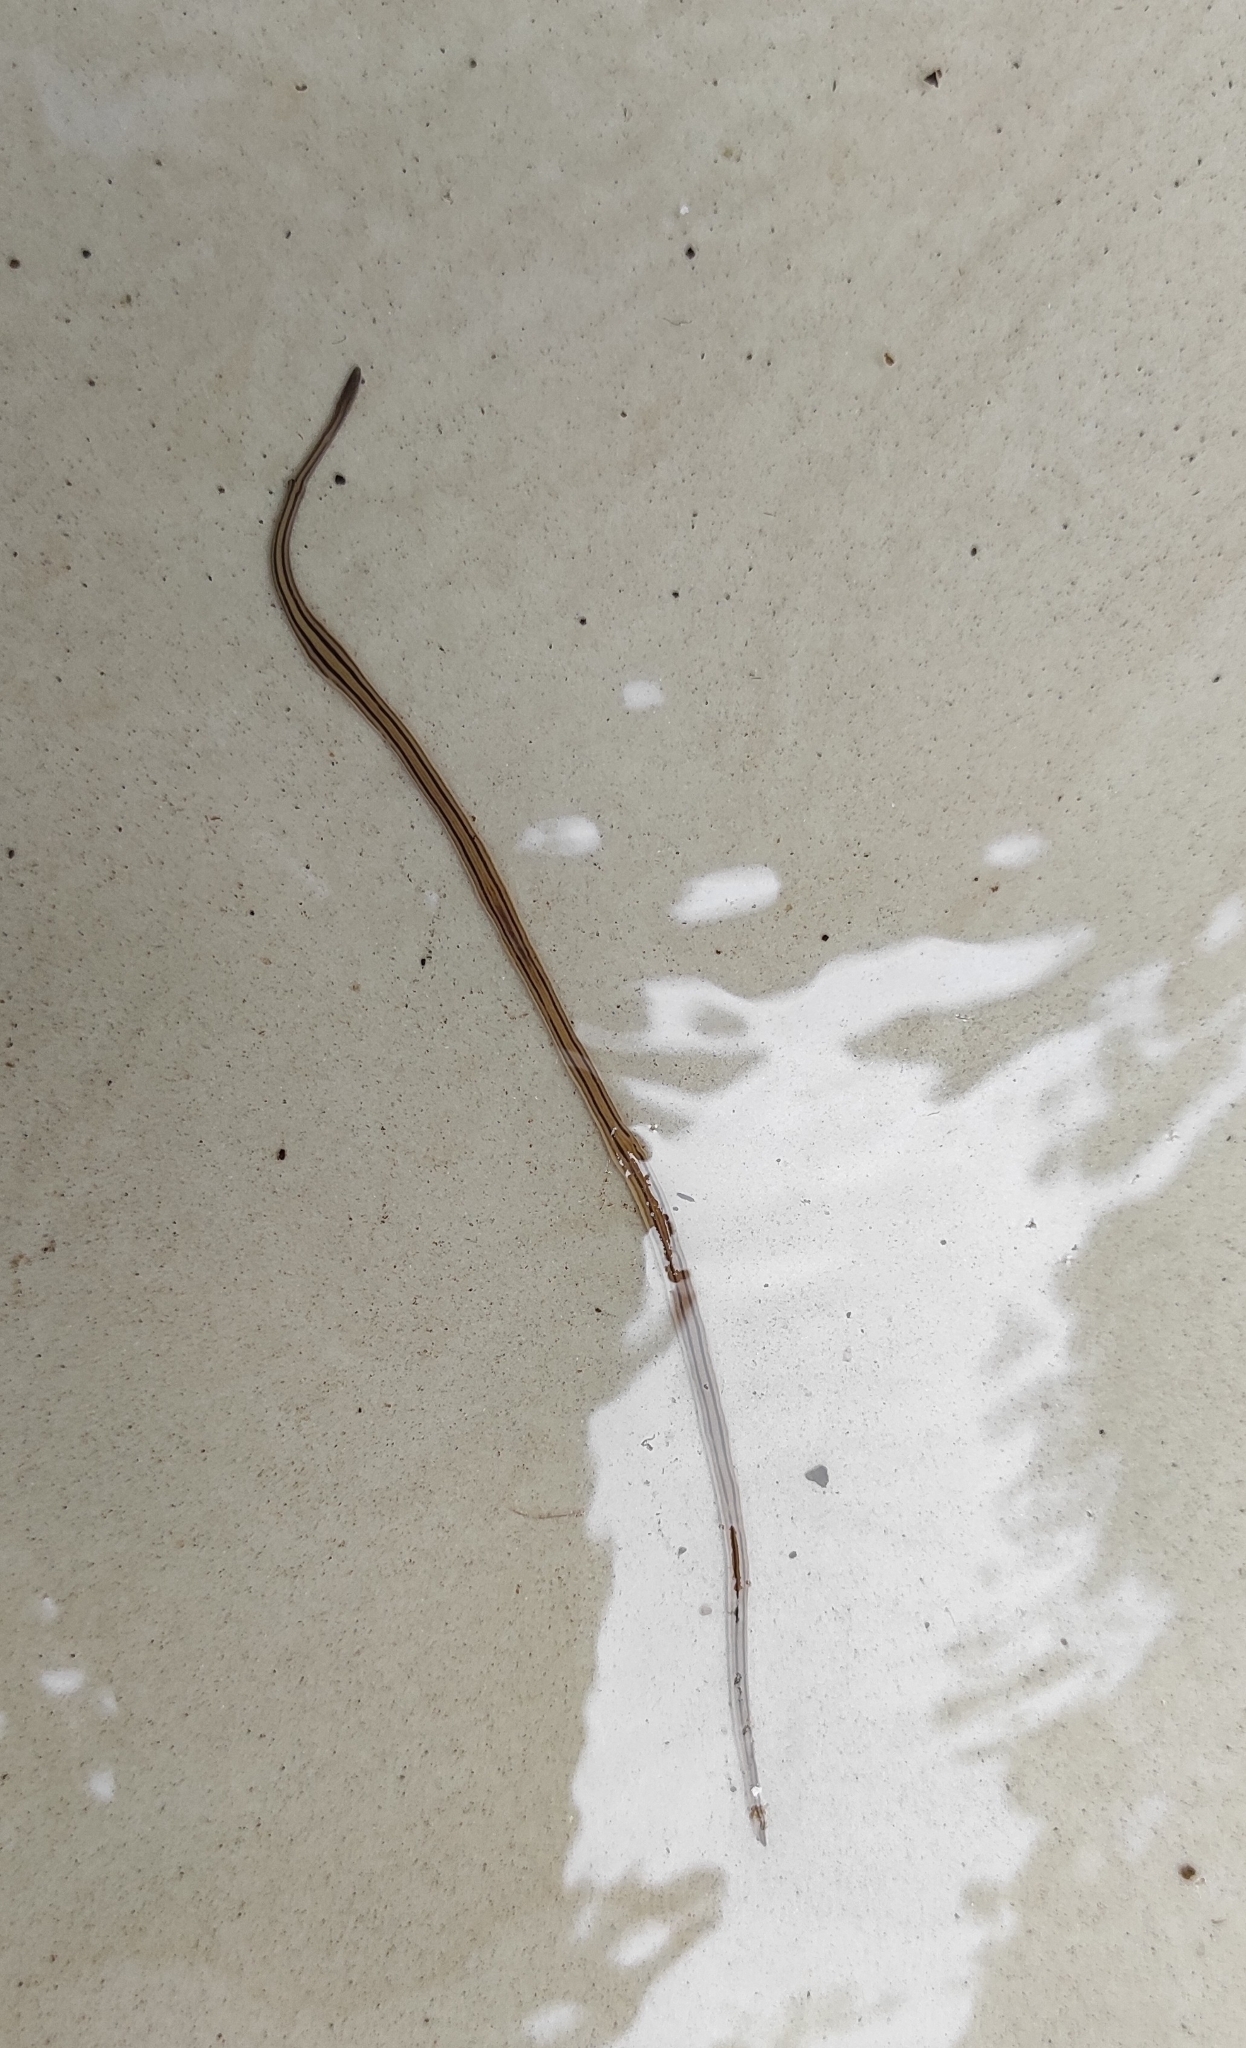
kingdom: Animalia
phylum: Platyhelminthes
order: Tricladida
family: Geoplanidae
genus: Dolichoplana
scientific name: Dolichoplana striata
